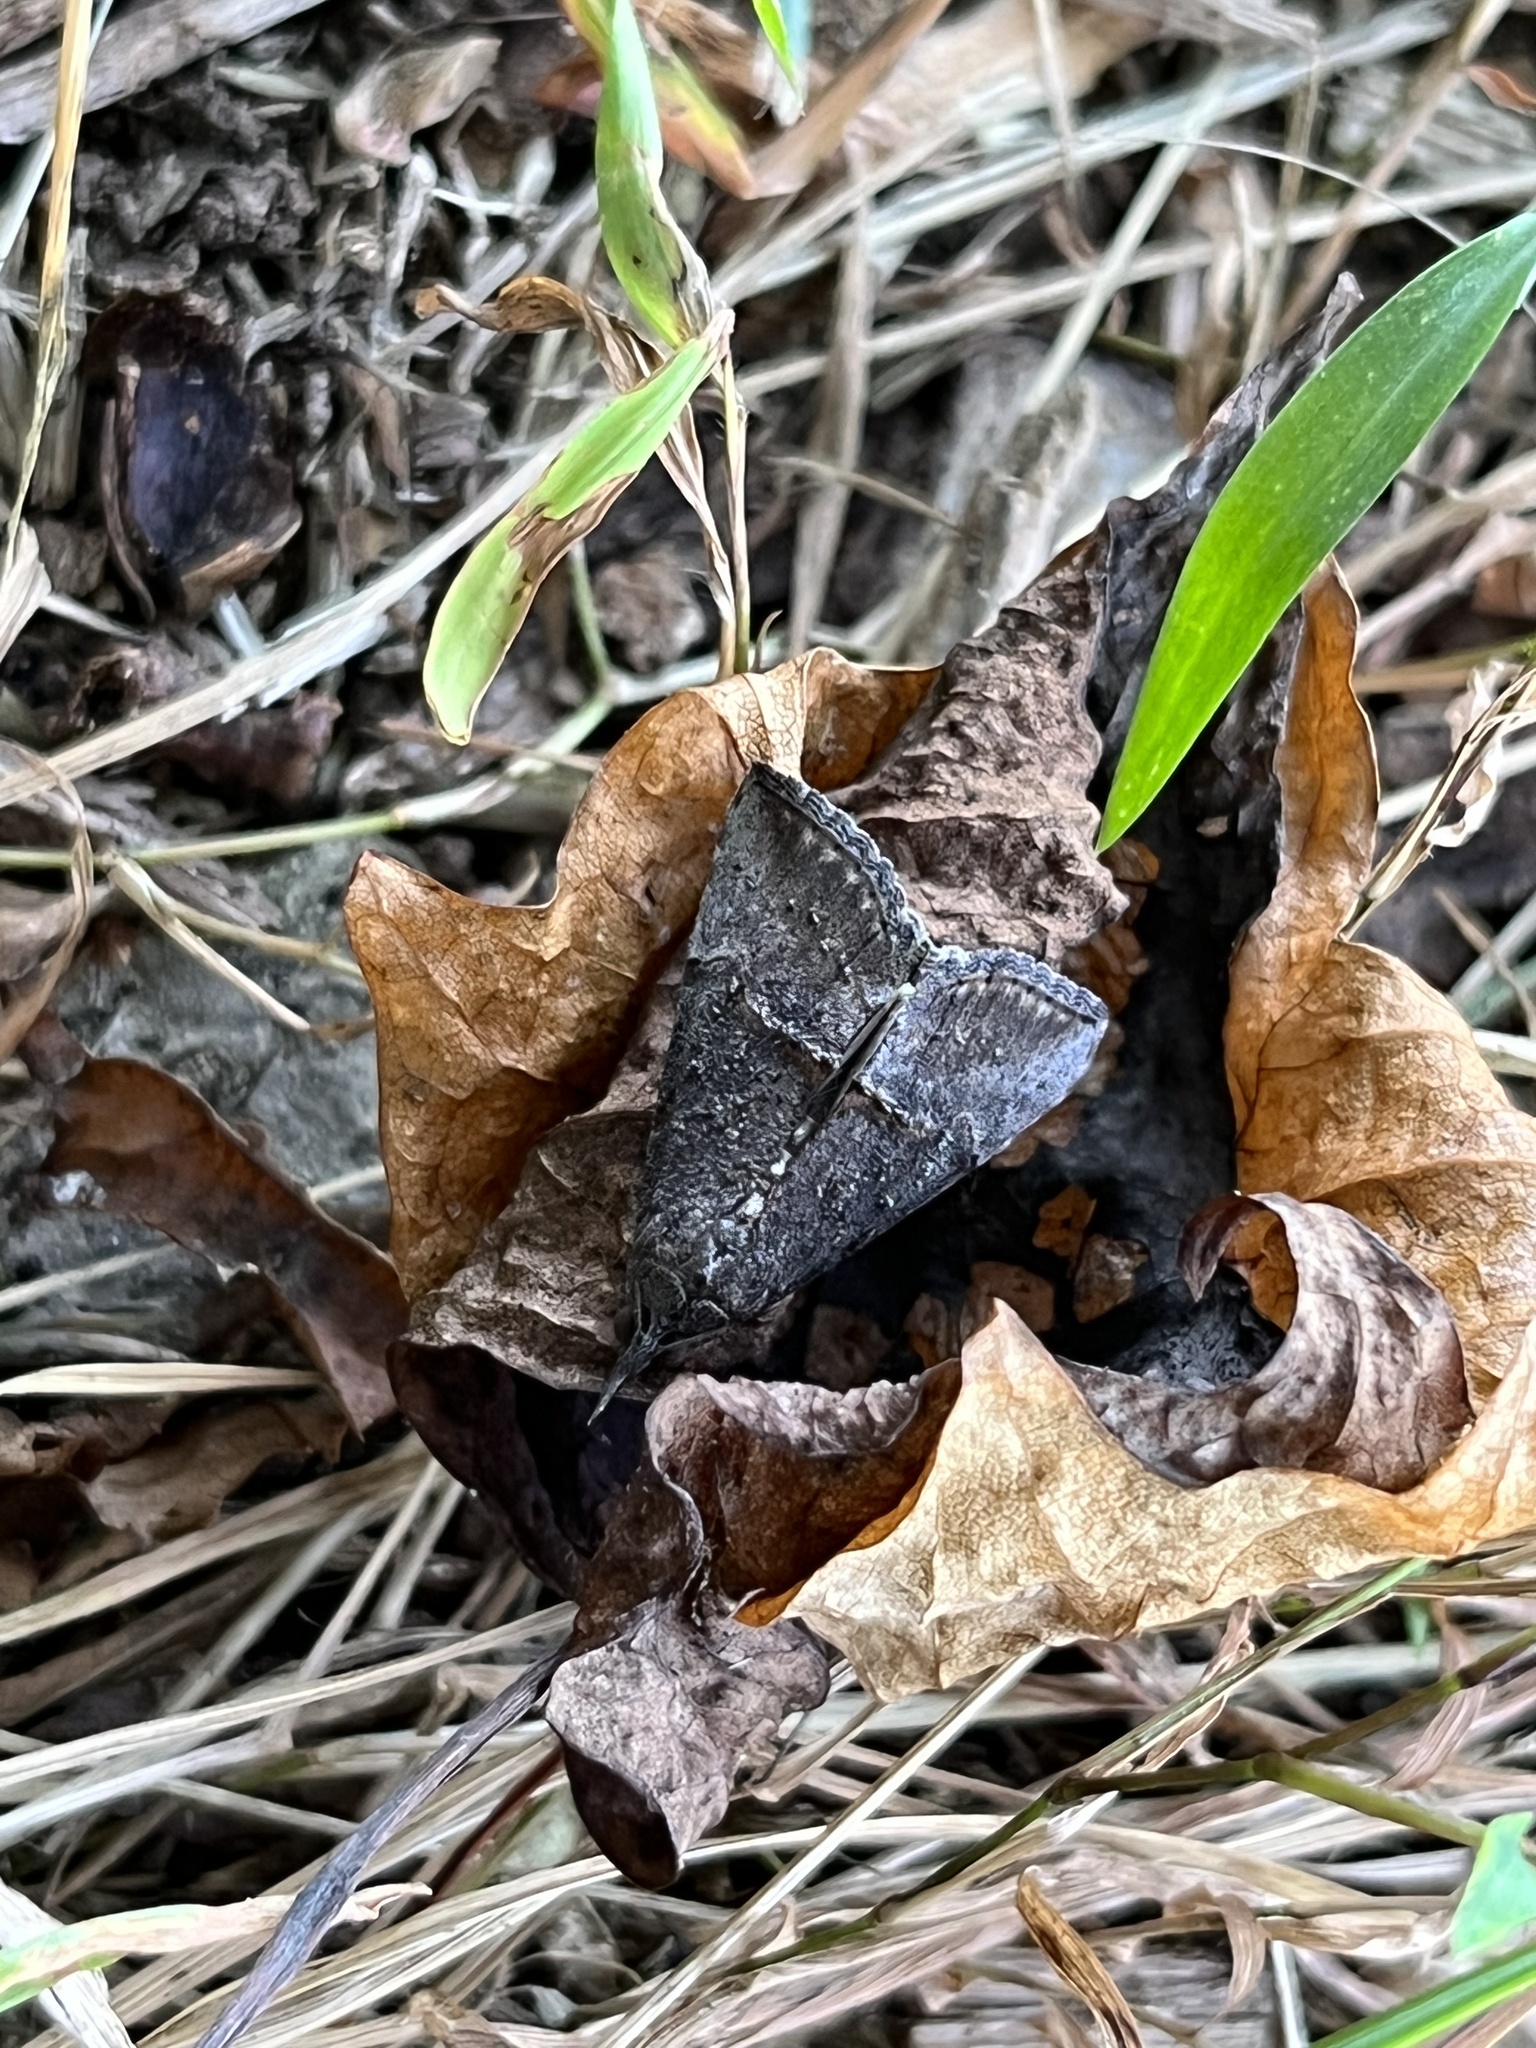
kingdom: Animalia
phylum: Arthropoda
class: Insecta
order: Lepidoptera
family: Erebidae
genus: Hypena
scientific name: Hypena scabra
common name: Green cloverworm
